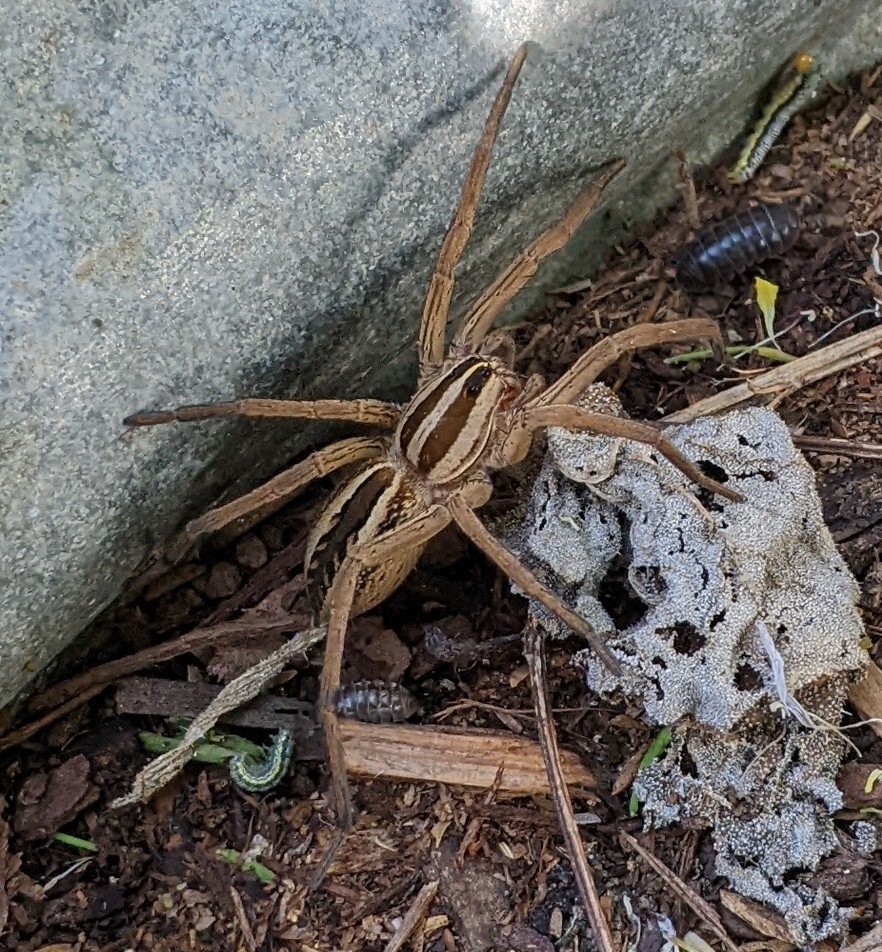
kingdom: Animalia
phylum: Arthropoda
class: Arachnida
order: Araneae
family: Lycosidae
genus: Rabidosa
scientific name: Rabidosa rabida
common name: Rabid wolf spider
